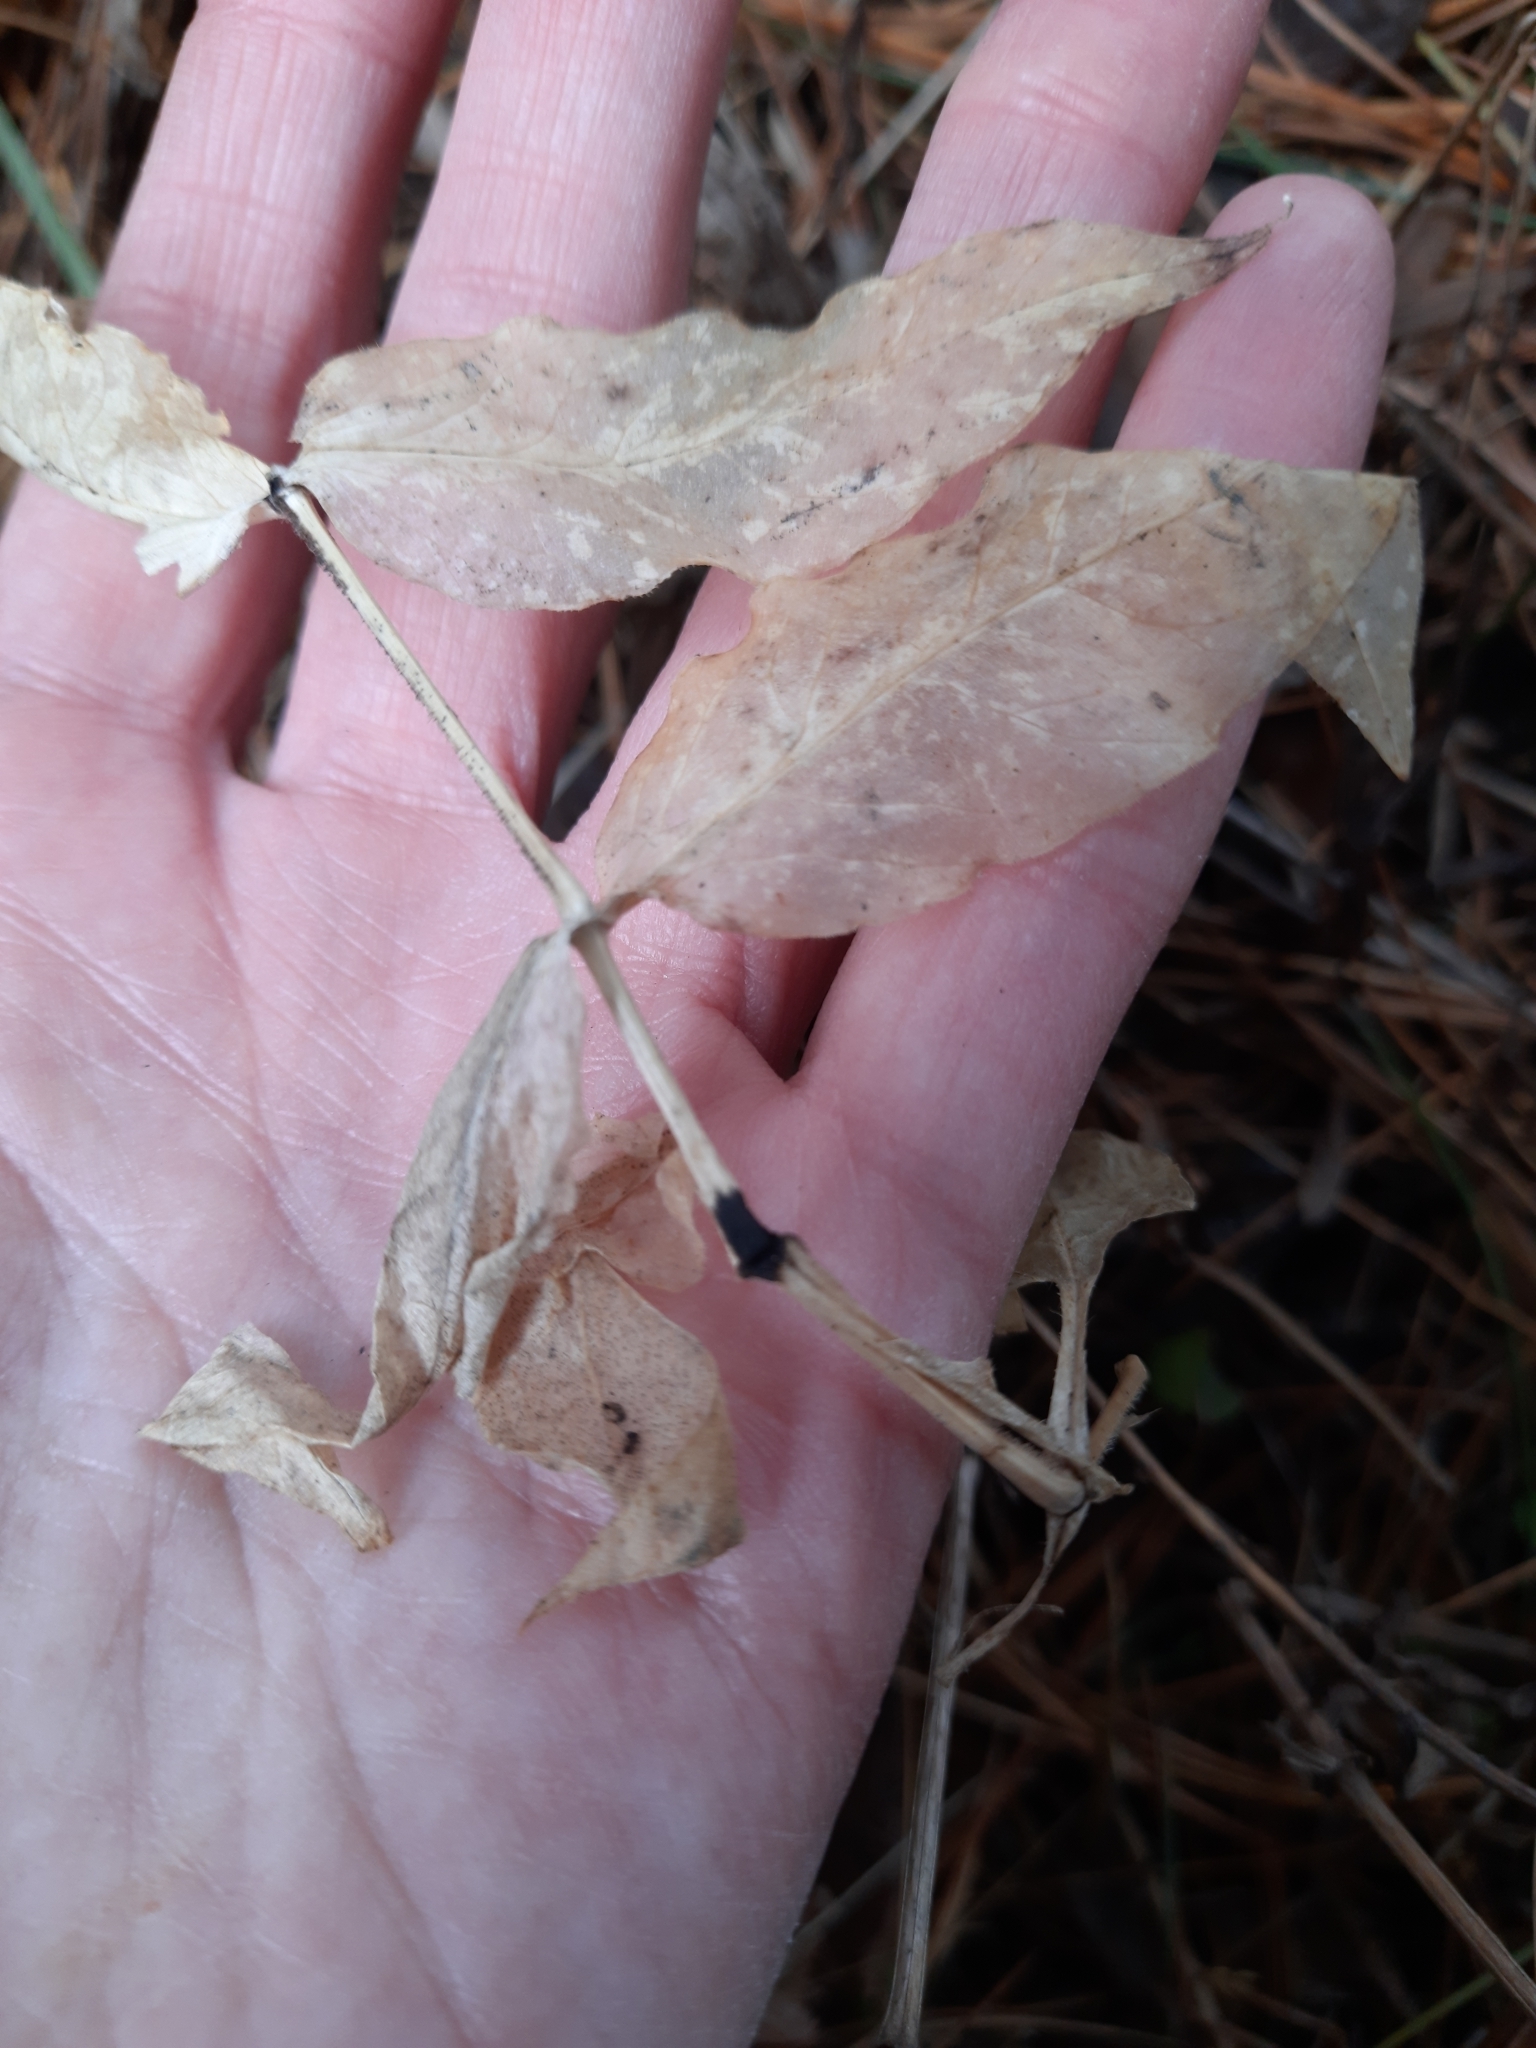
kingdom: Plantae
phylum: Tracheophyta
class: Magnoliopsida
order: Caryophyllales
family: Caryophyllaceae
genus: Stellaria
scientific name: Stellaria bungeana
